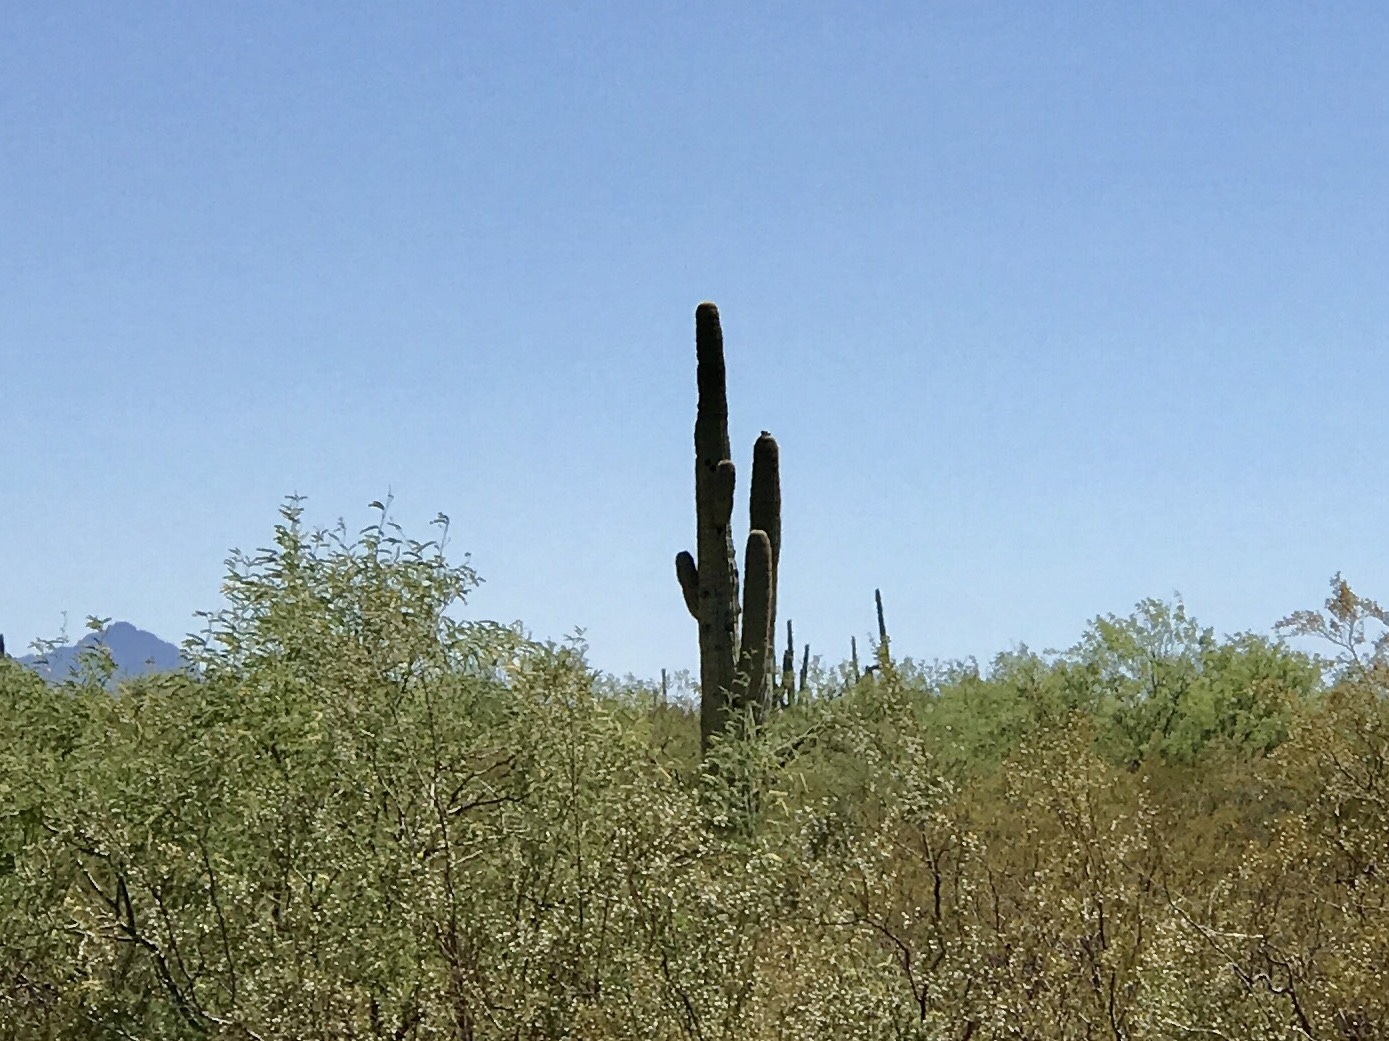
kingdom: Plantae
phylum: Tracheophyta
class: Magnoliopsida
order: Caryophyllales
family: Cactaceae
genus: Carnegiea
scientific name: Carnegiea gigantea
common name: Saguaro
